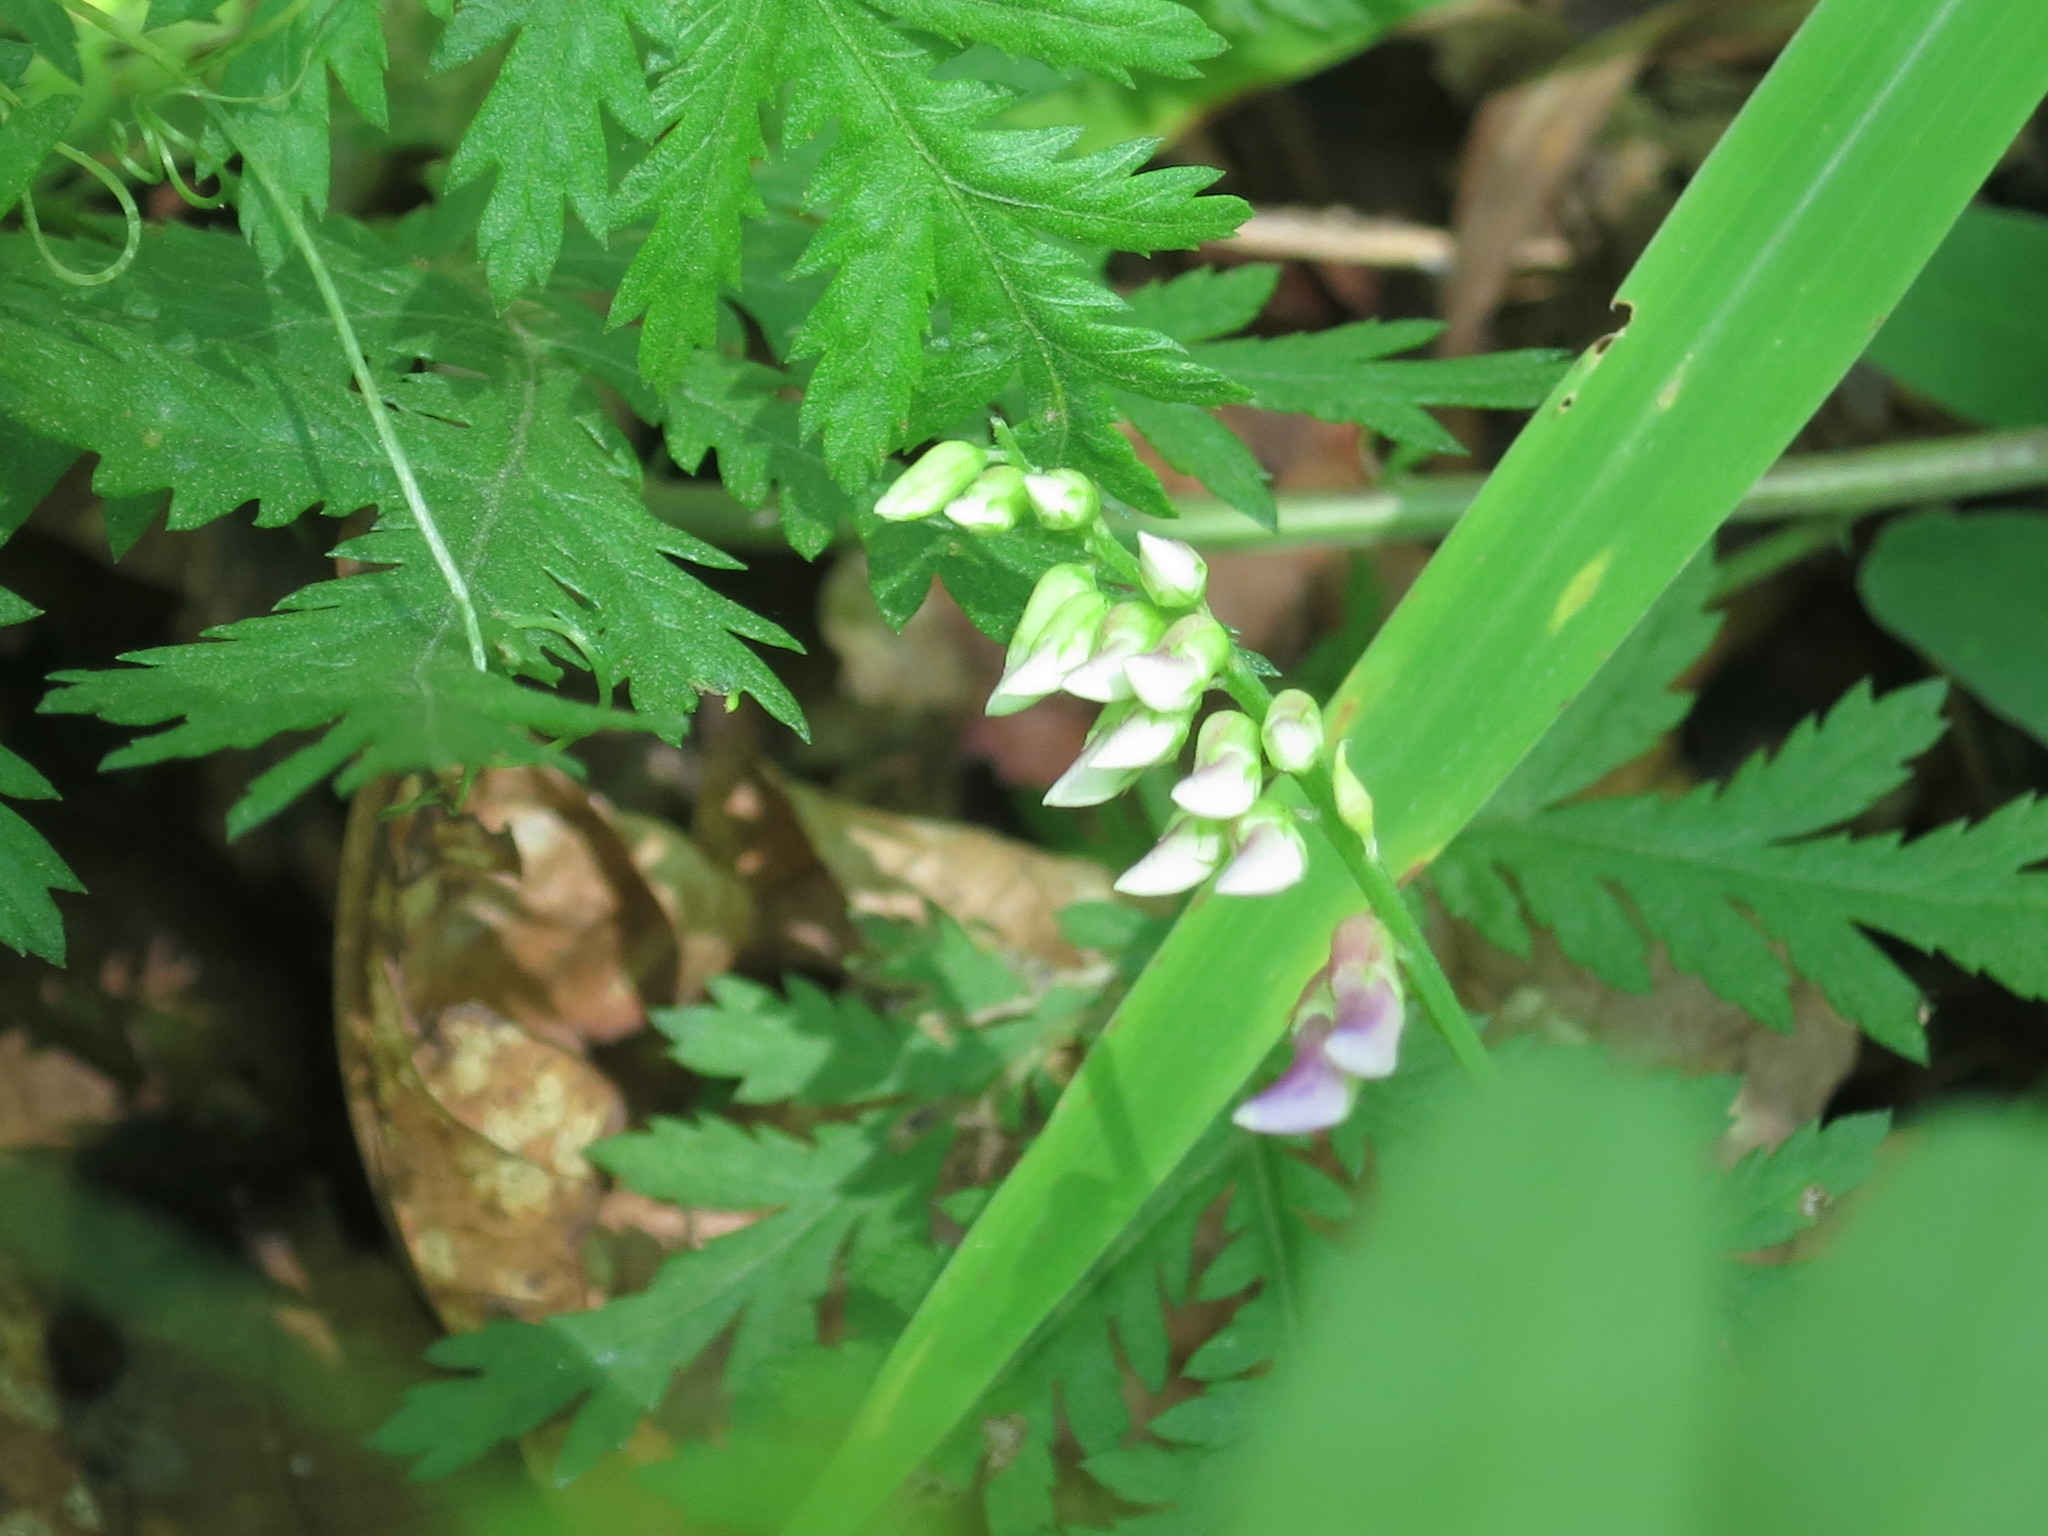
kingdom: Plantae
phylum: Tracheophyta
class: Magnoliopsida
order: Fabales
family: Fabaceae
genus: Vicia
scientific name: Vicia amurensis
